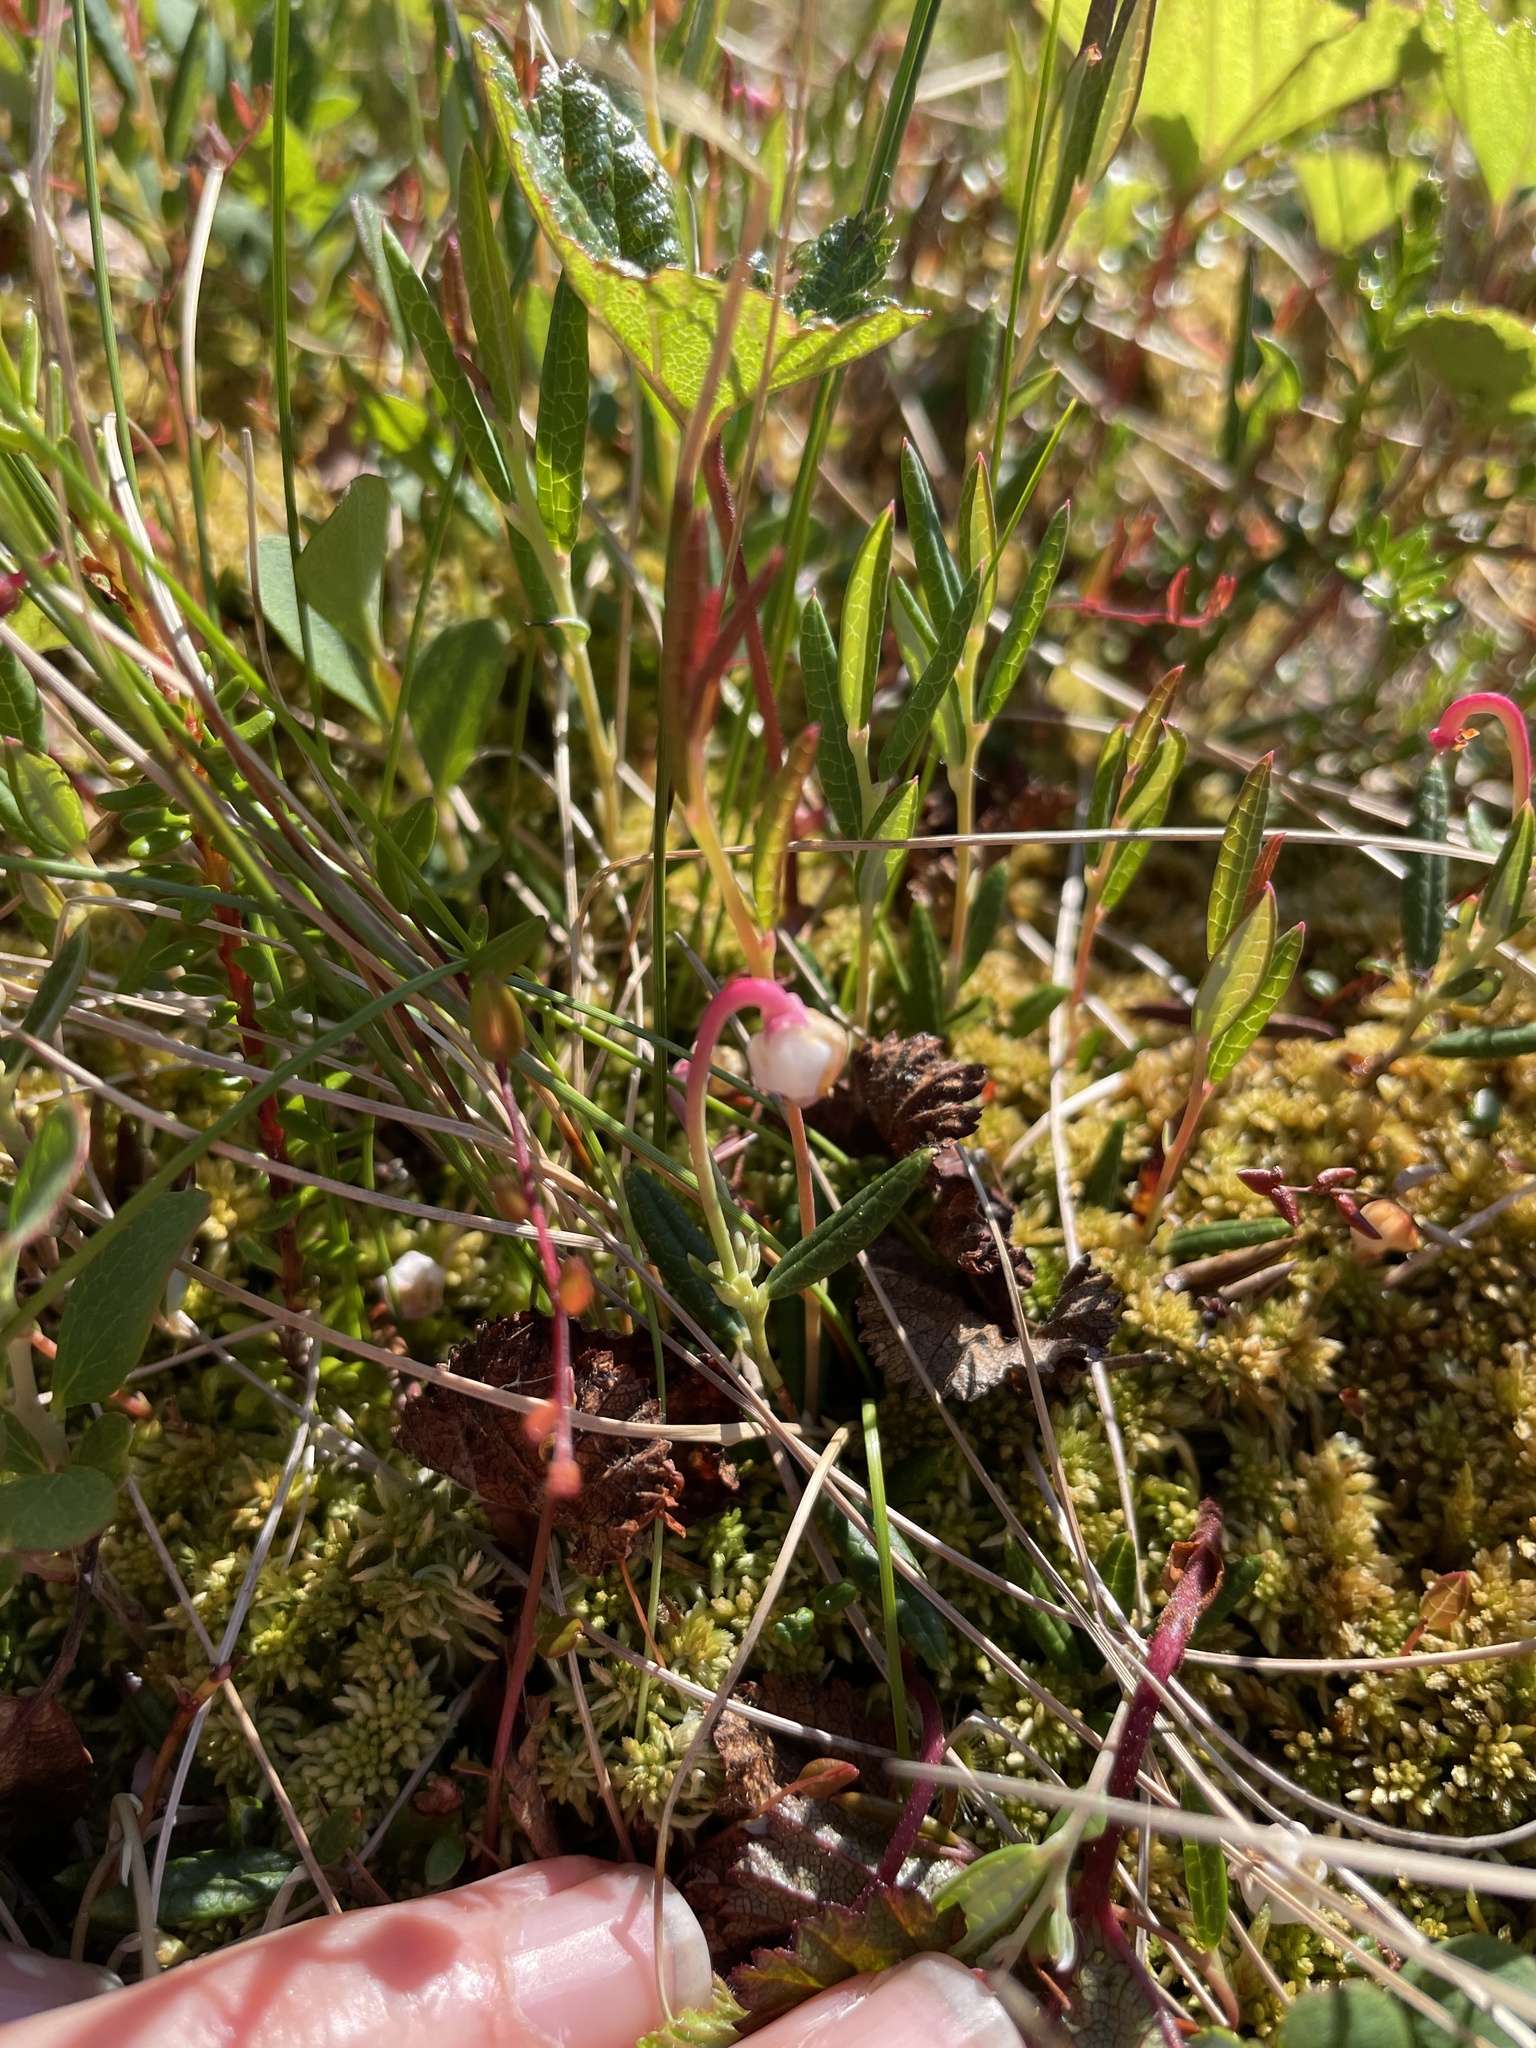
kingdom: Plantae
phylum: Tracheophyta
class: Magnoliopsida
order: Ericales
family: Ericaceae
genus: Andromeda
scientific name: Andromeda polifolia
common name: Bog-rosemary
